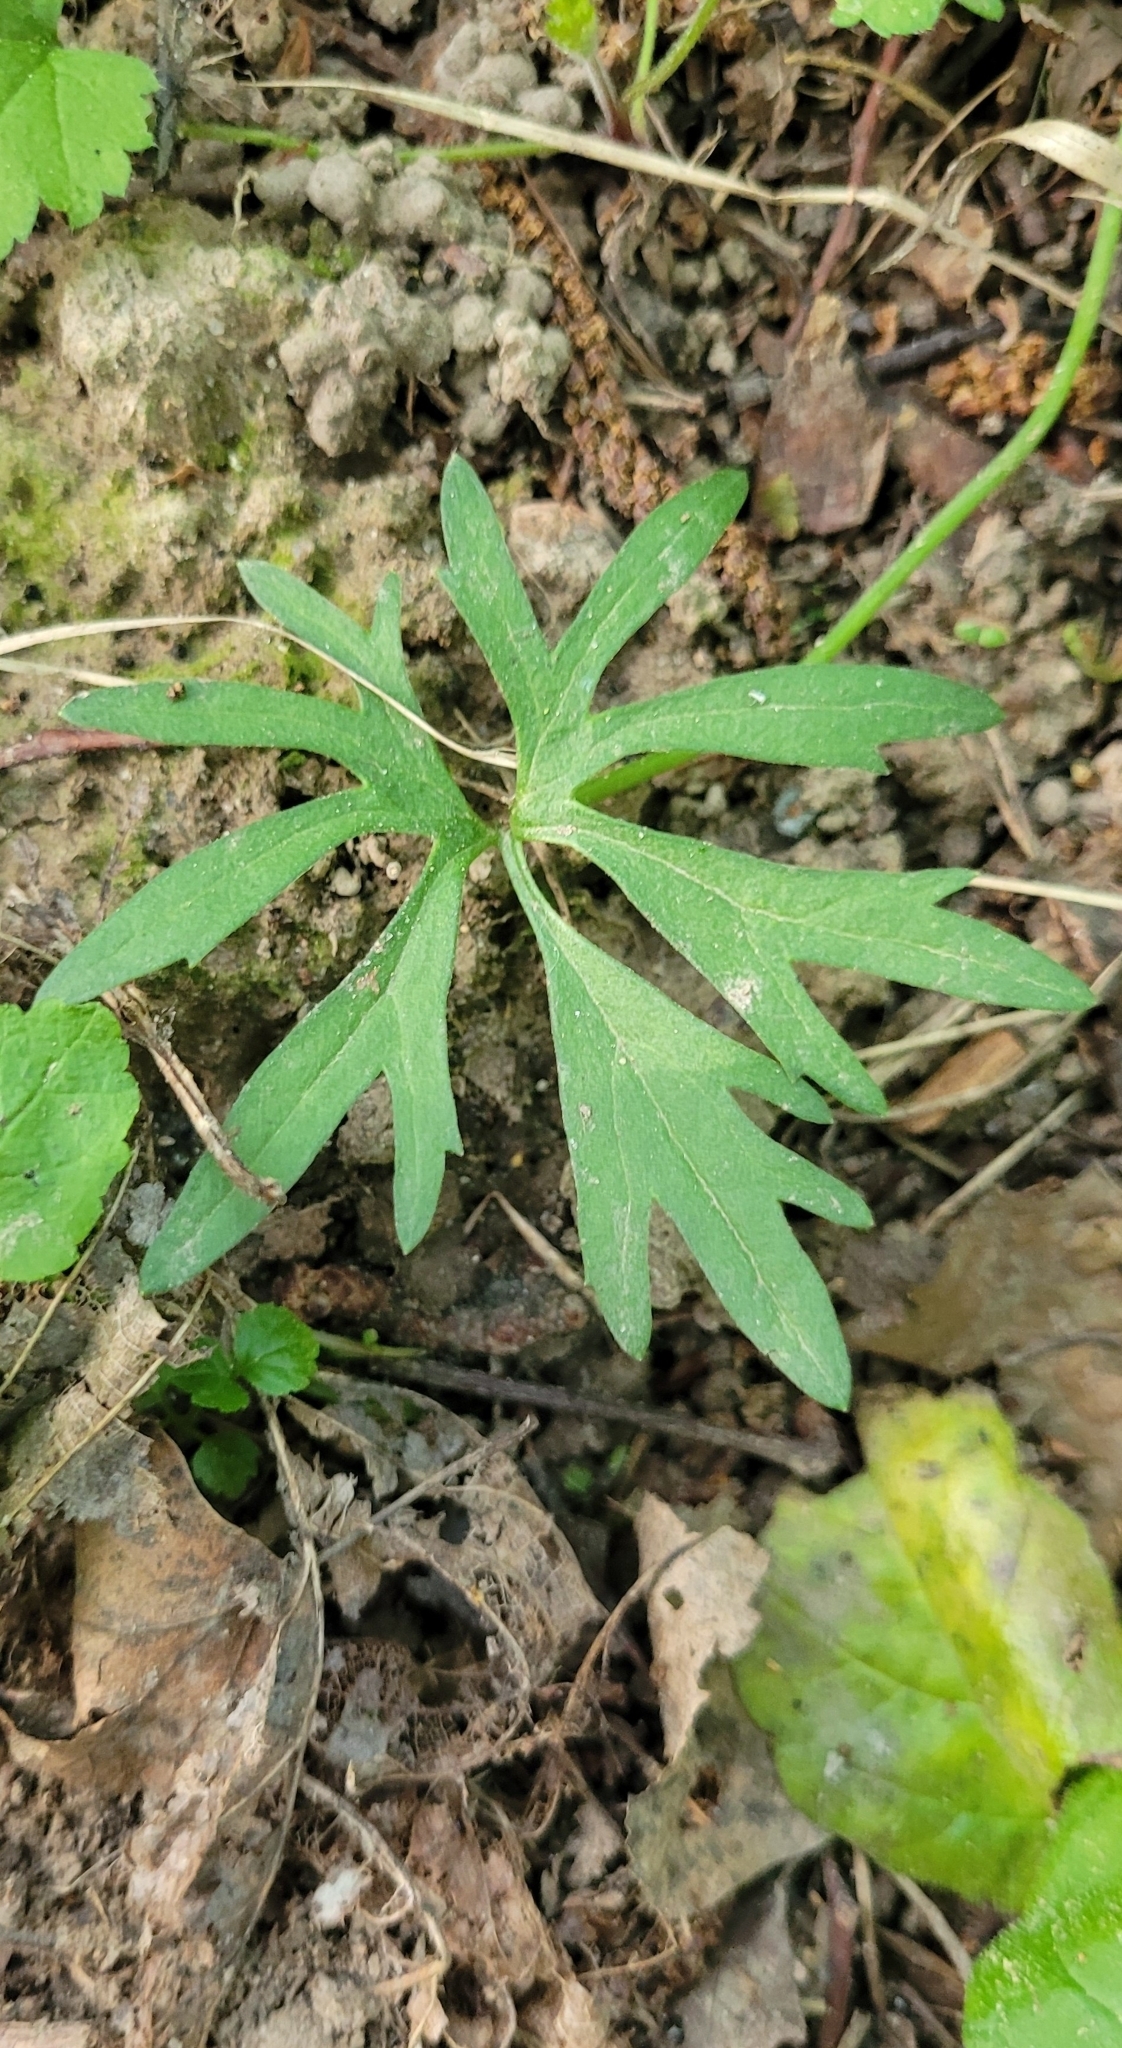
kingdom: Plantae
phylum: Tracheophyta
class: Magnoliopsida
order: Ranunculales
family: Ranunculaceae
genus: Ranunculus
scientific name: Ranunculus auricomus
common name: Goldilocks buttercup
